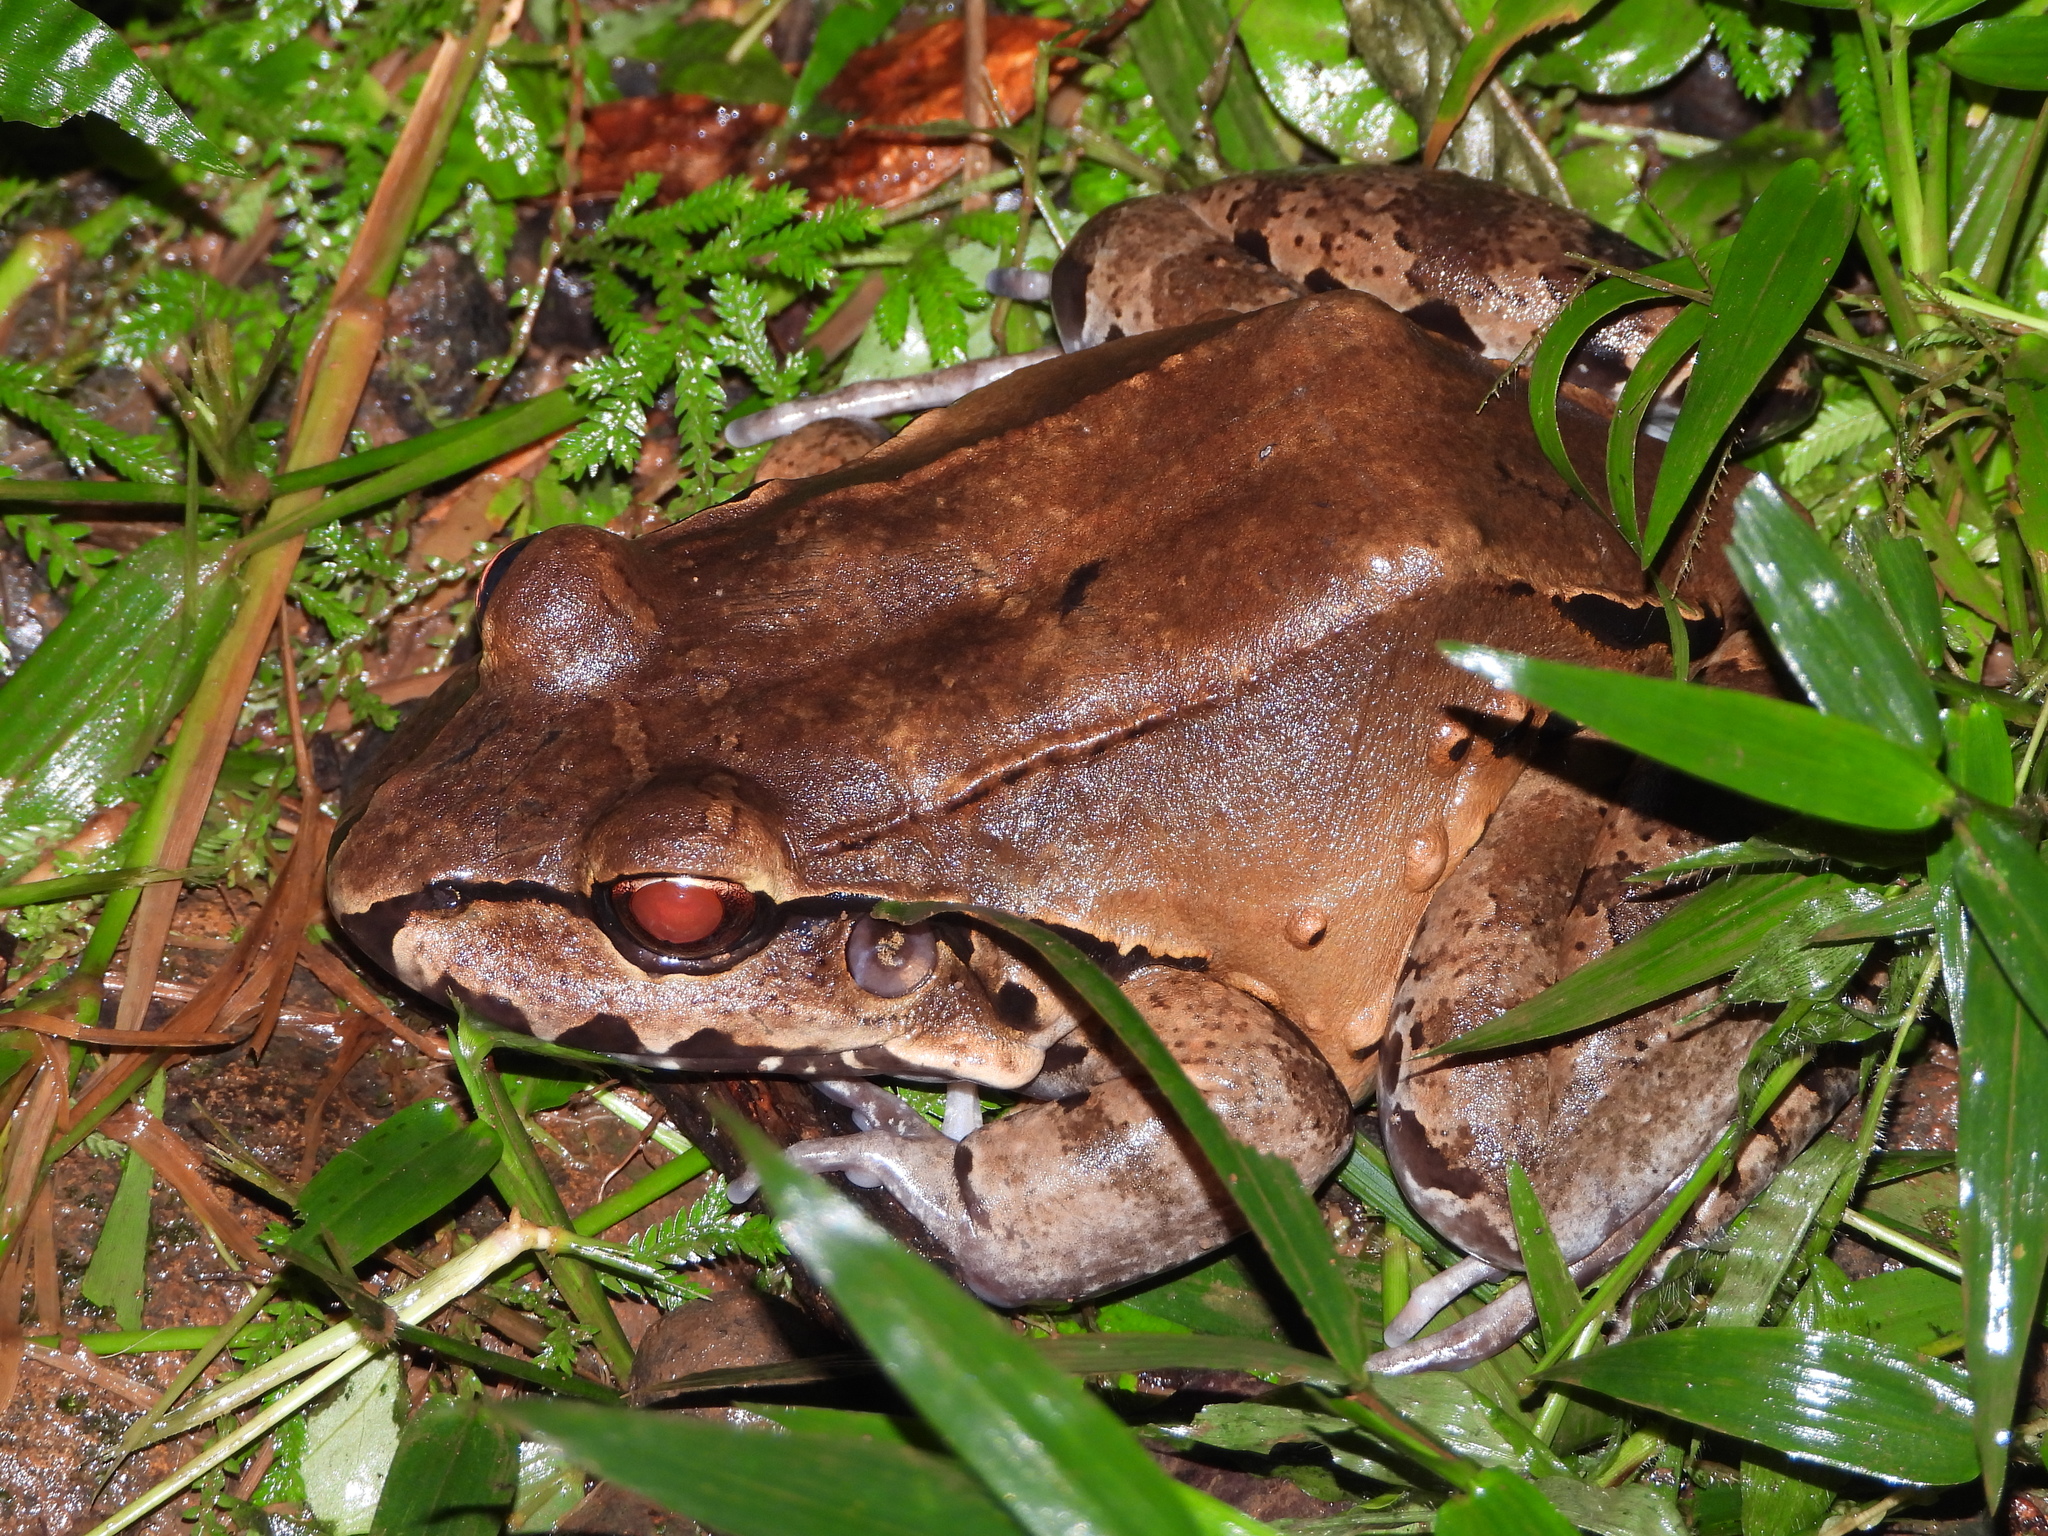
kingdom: Animalia
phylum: Chordata
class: Amphibia
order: Anura
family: Leptodactylidae
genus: Leptodactylus
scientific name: Leptodactylus savagei
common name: Savage's thin-toed frog
